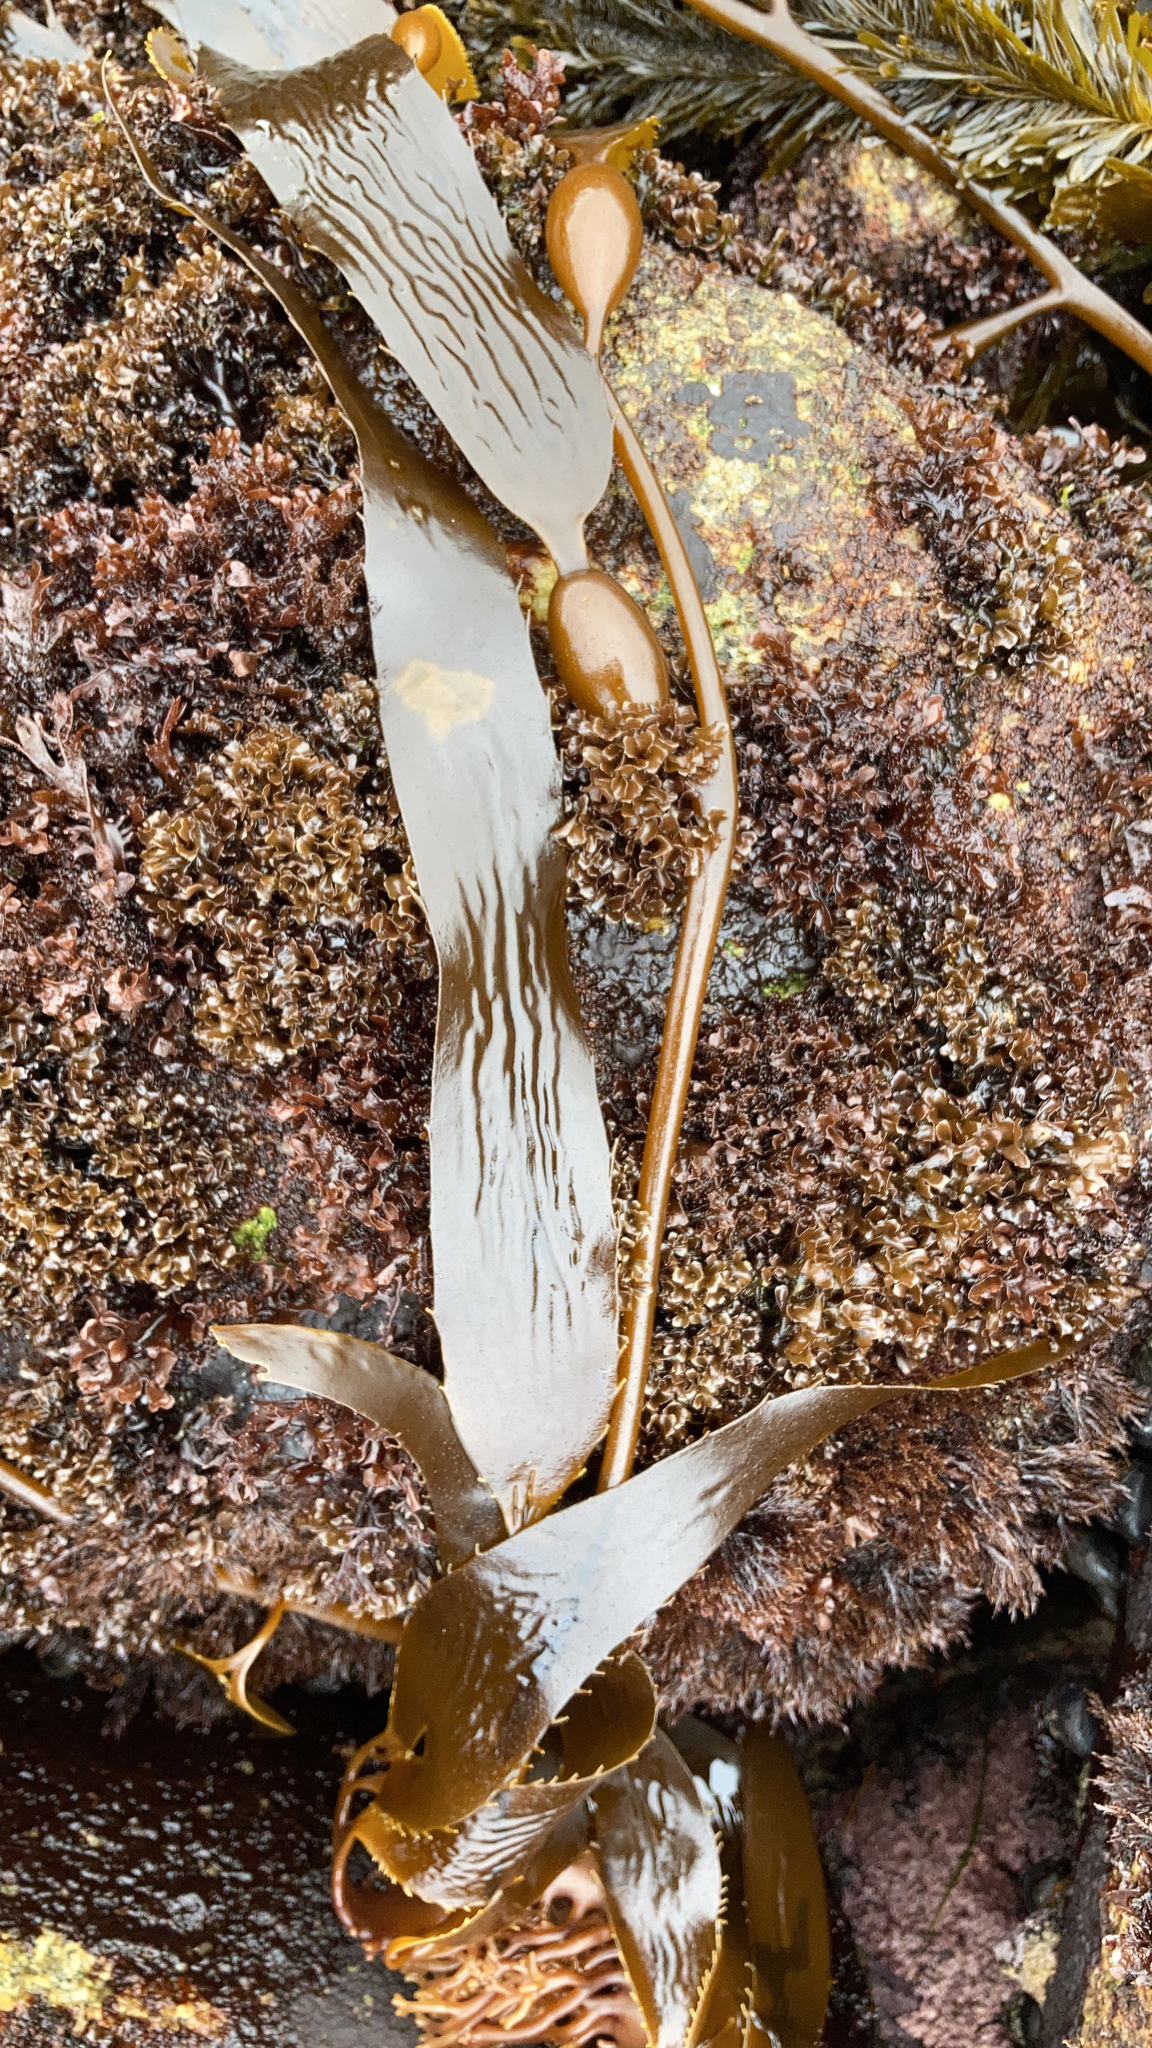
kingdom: Chromista
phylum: Ochrophyta
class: Phaeophyceae
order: Laminariales
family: Laminariaceae
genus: Macrocystis
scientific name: Macrocystis pyrifera
